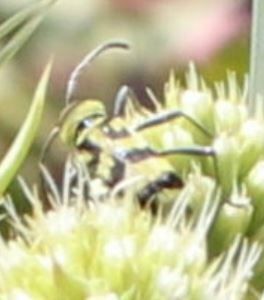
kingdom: Animalia
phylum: Arthropoda
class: Insecta
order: Coleoptera
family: Cerambycidae
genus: Chlorophorus
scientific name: Chlorophorus varius
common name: Grape wood borer
